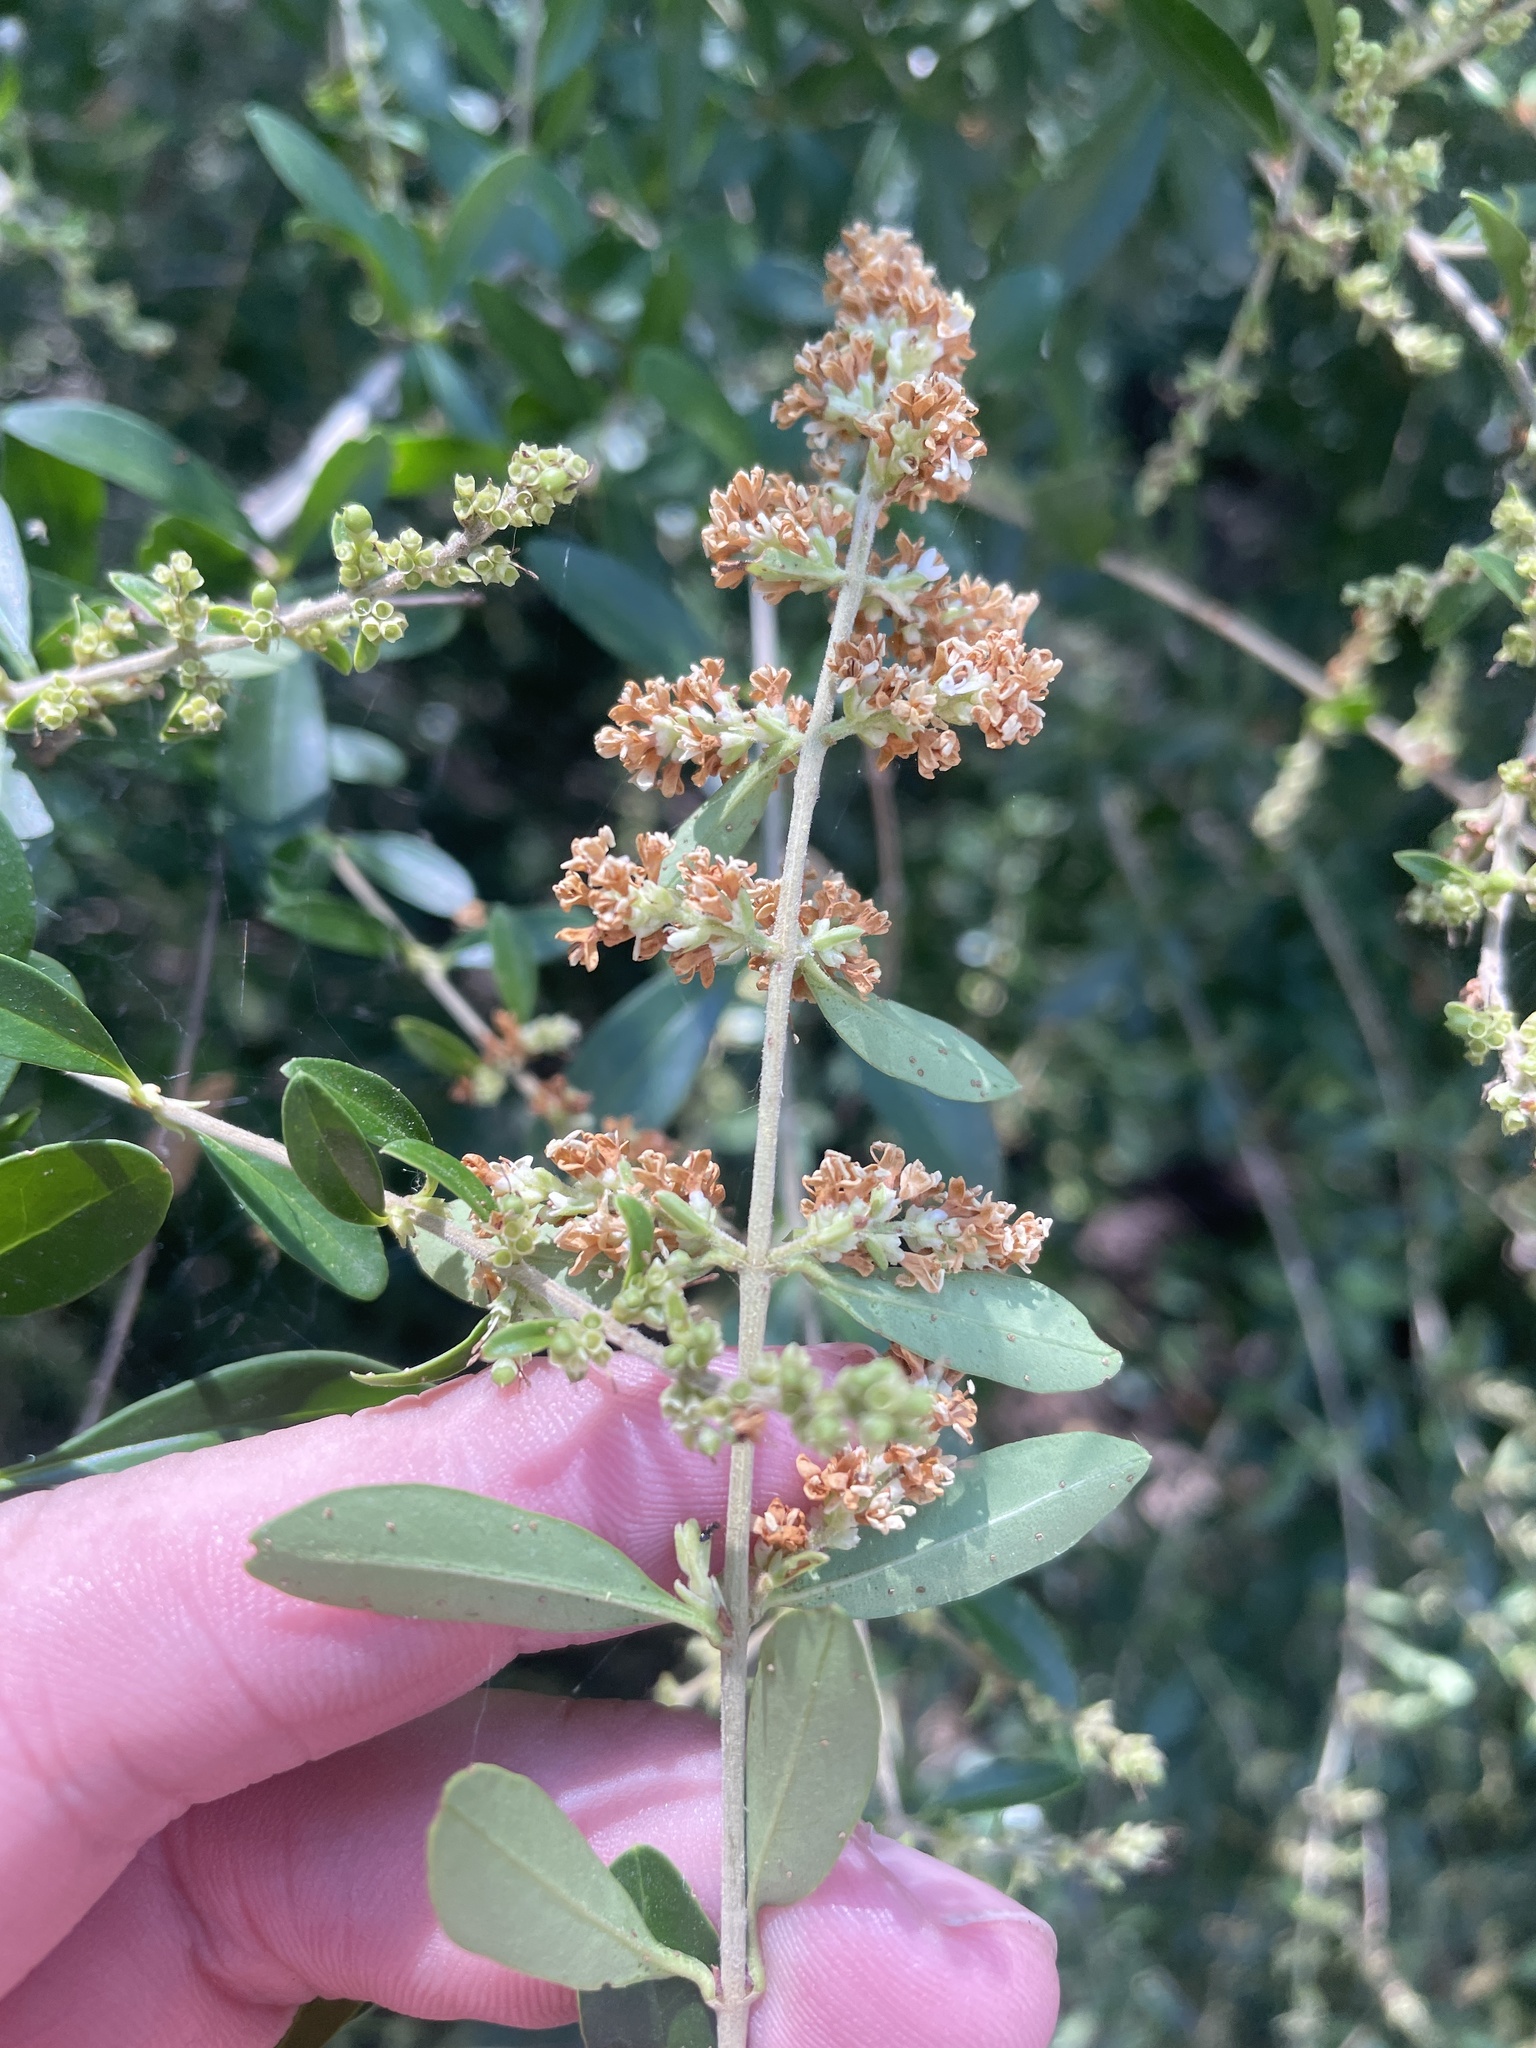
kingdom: Plantae
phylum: Tracheophyta
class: Magnoliopsida
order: Lamiales
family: Oleaceae
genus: Ligustrum
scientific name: Ligustrum quihoui
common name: Waxyleaf privet
